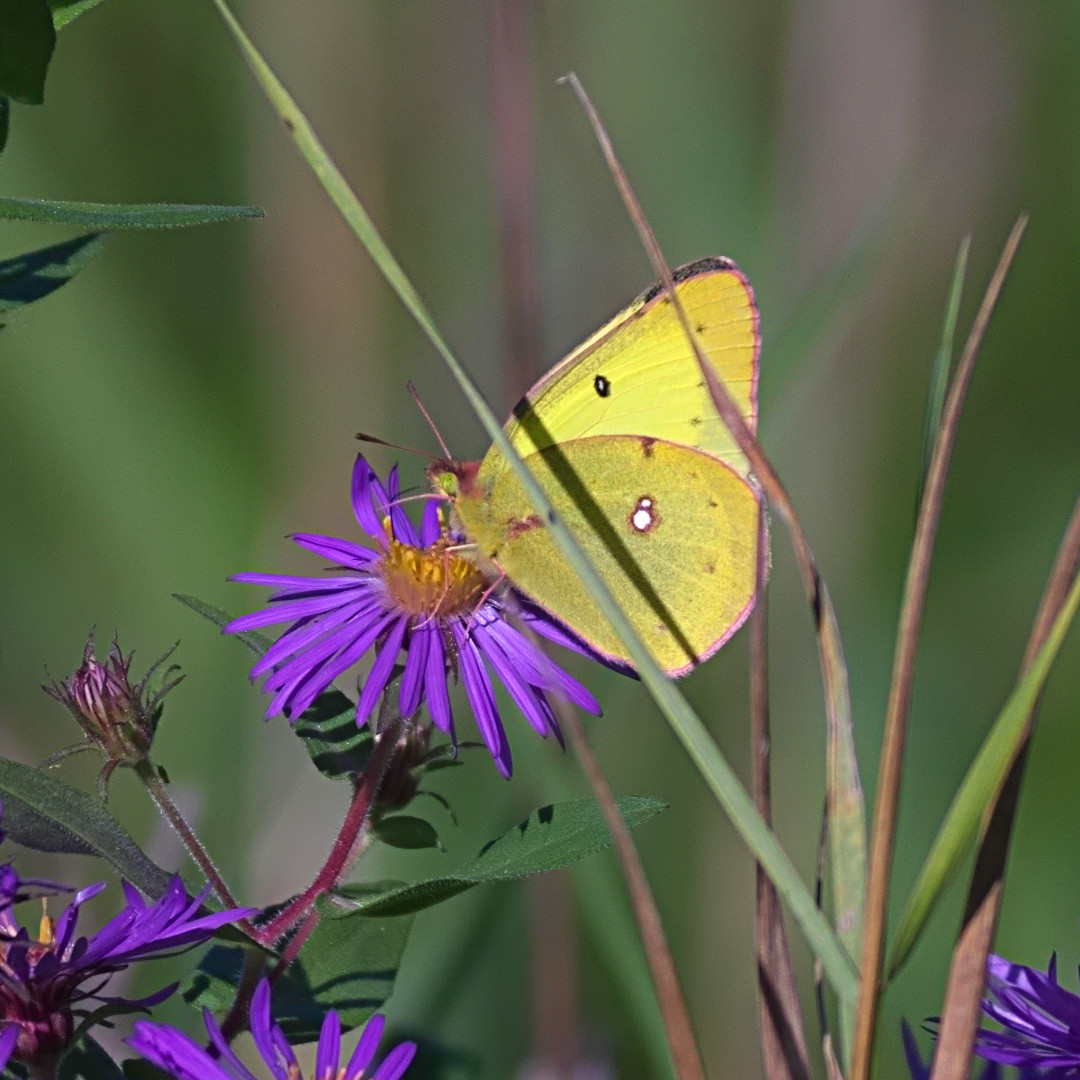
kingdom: Animalia
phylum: Arthropoda
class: Insecta
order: Lepidoptera
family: Pieridae
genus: Colias
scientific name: Colias philodice
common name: Clouded sulphur
